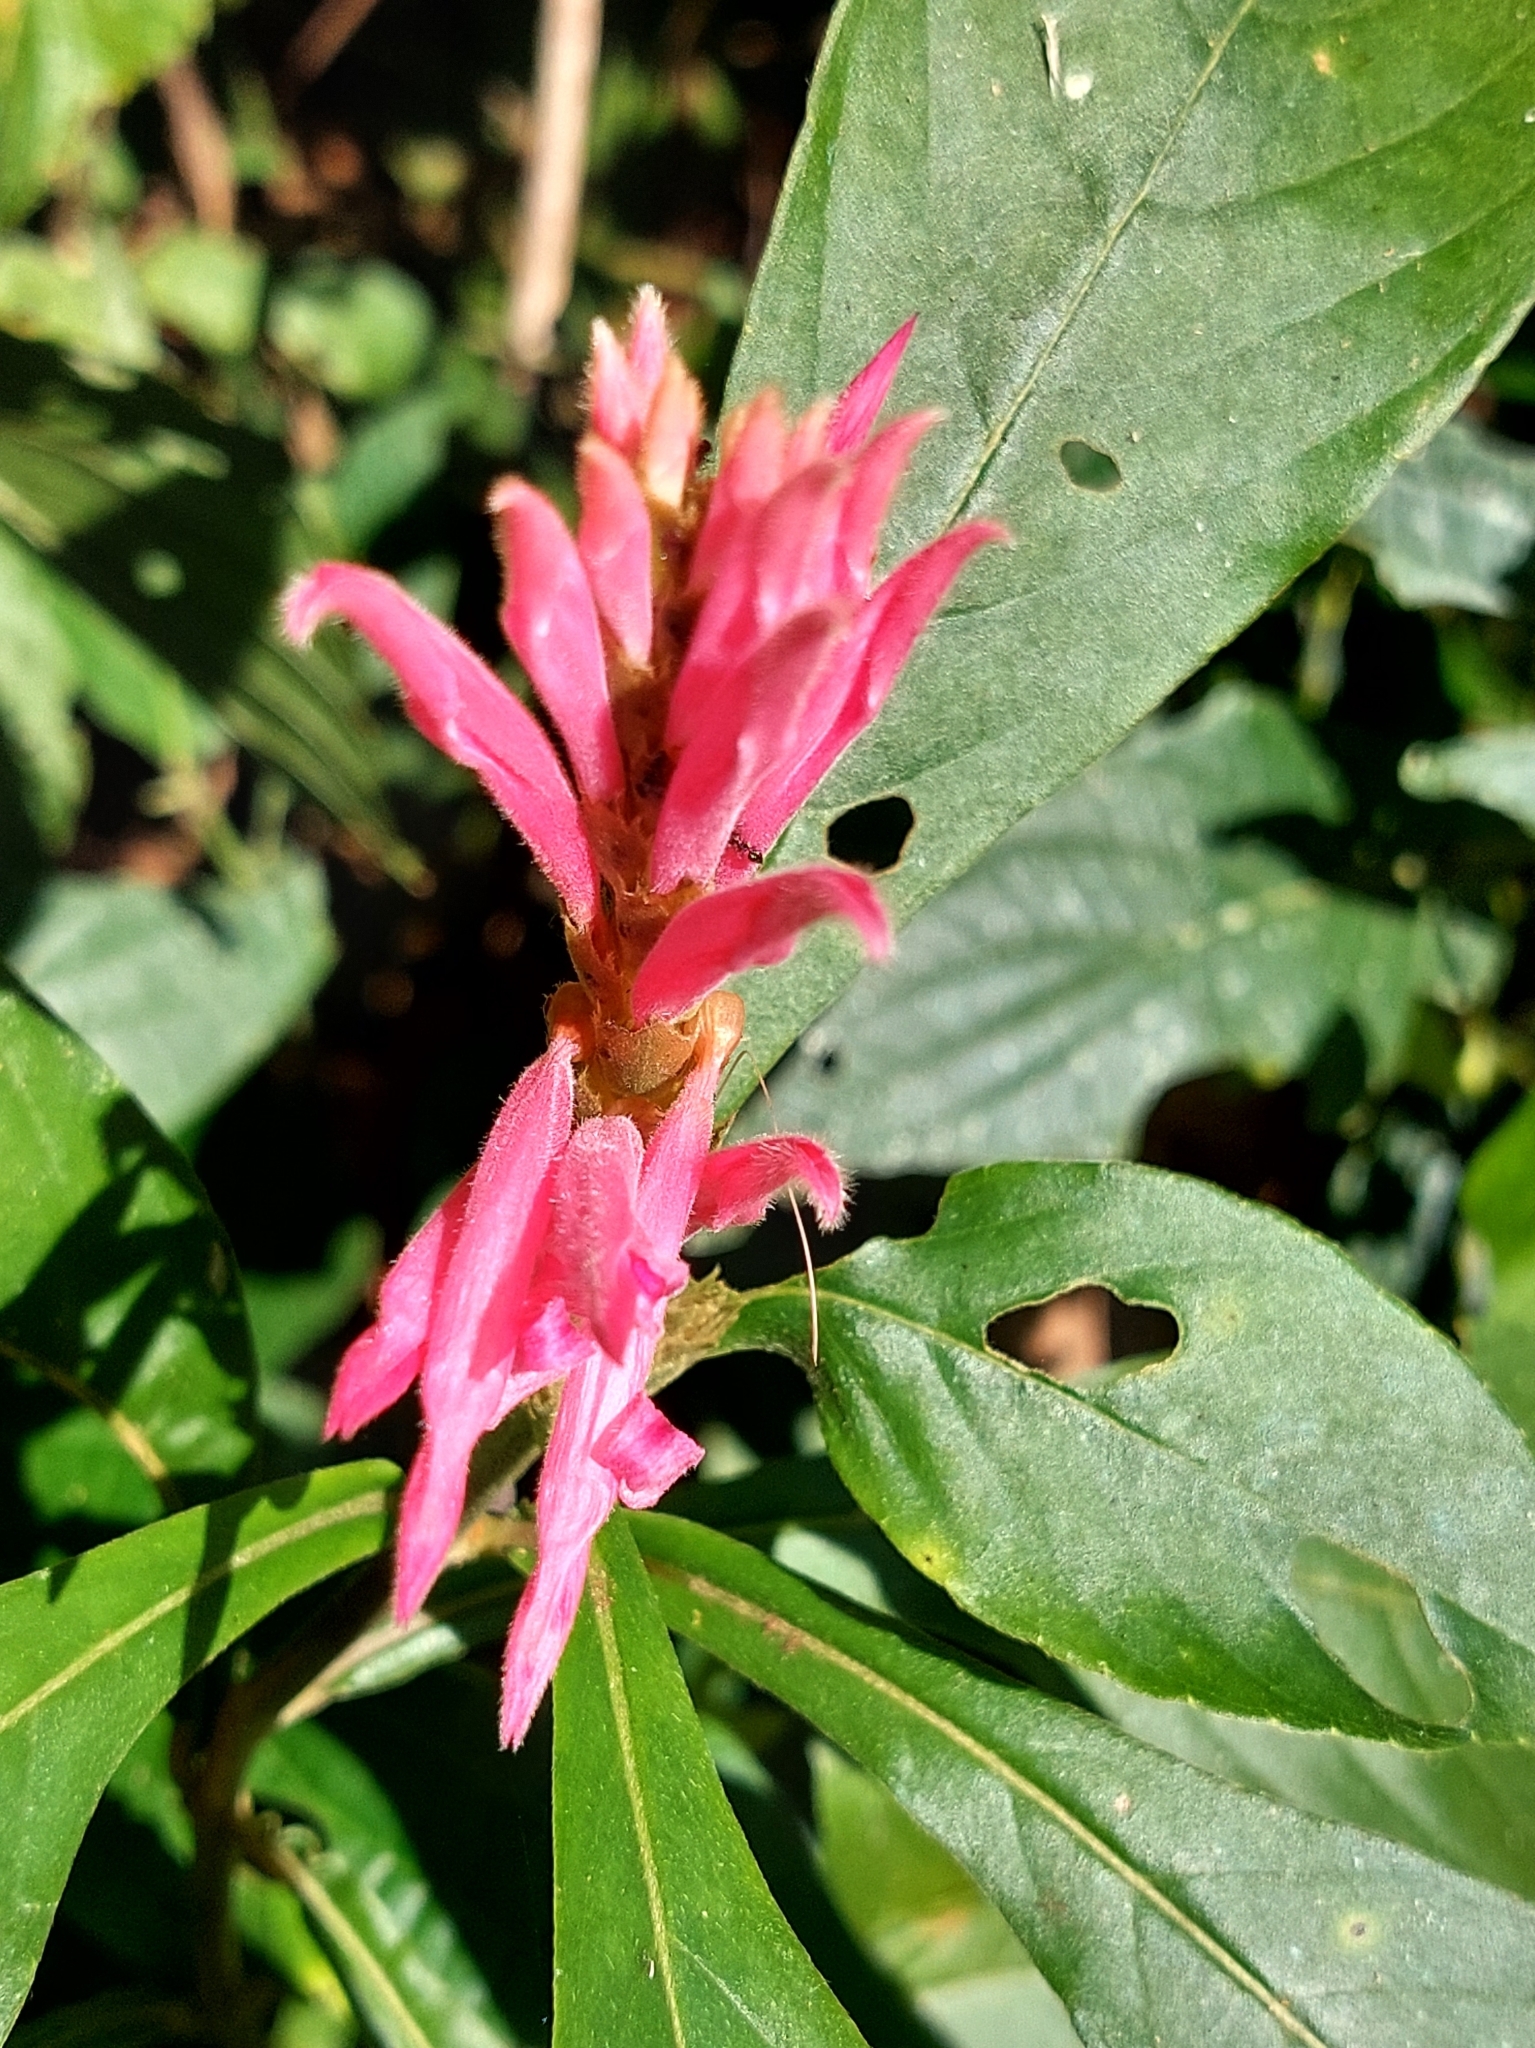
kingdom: Plantae
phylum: Tracheophyta
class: Magnoliopsida
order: Lamiales
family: Acanthaceae
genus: Aphelandra
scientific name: Aphelandra scabra
